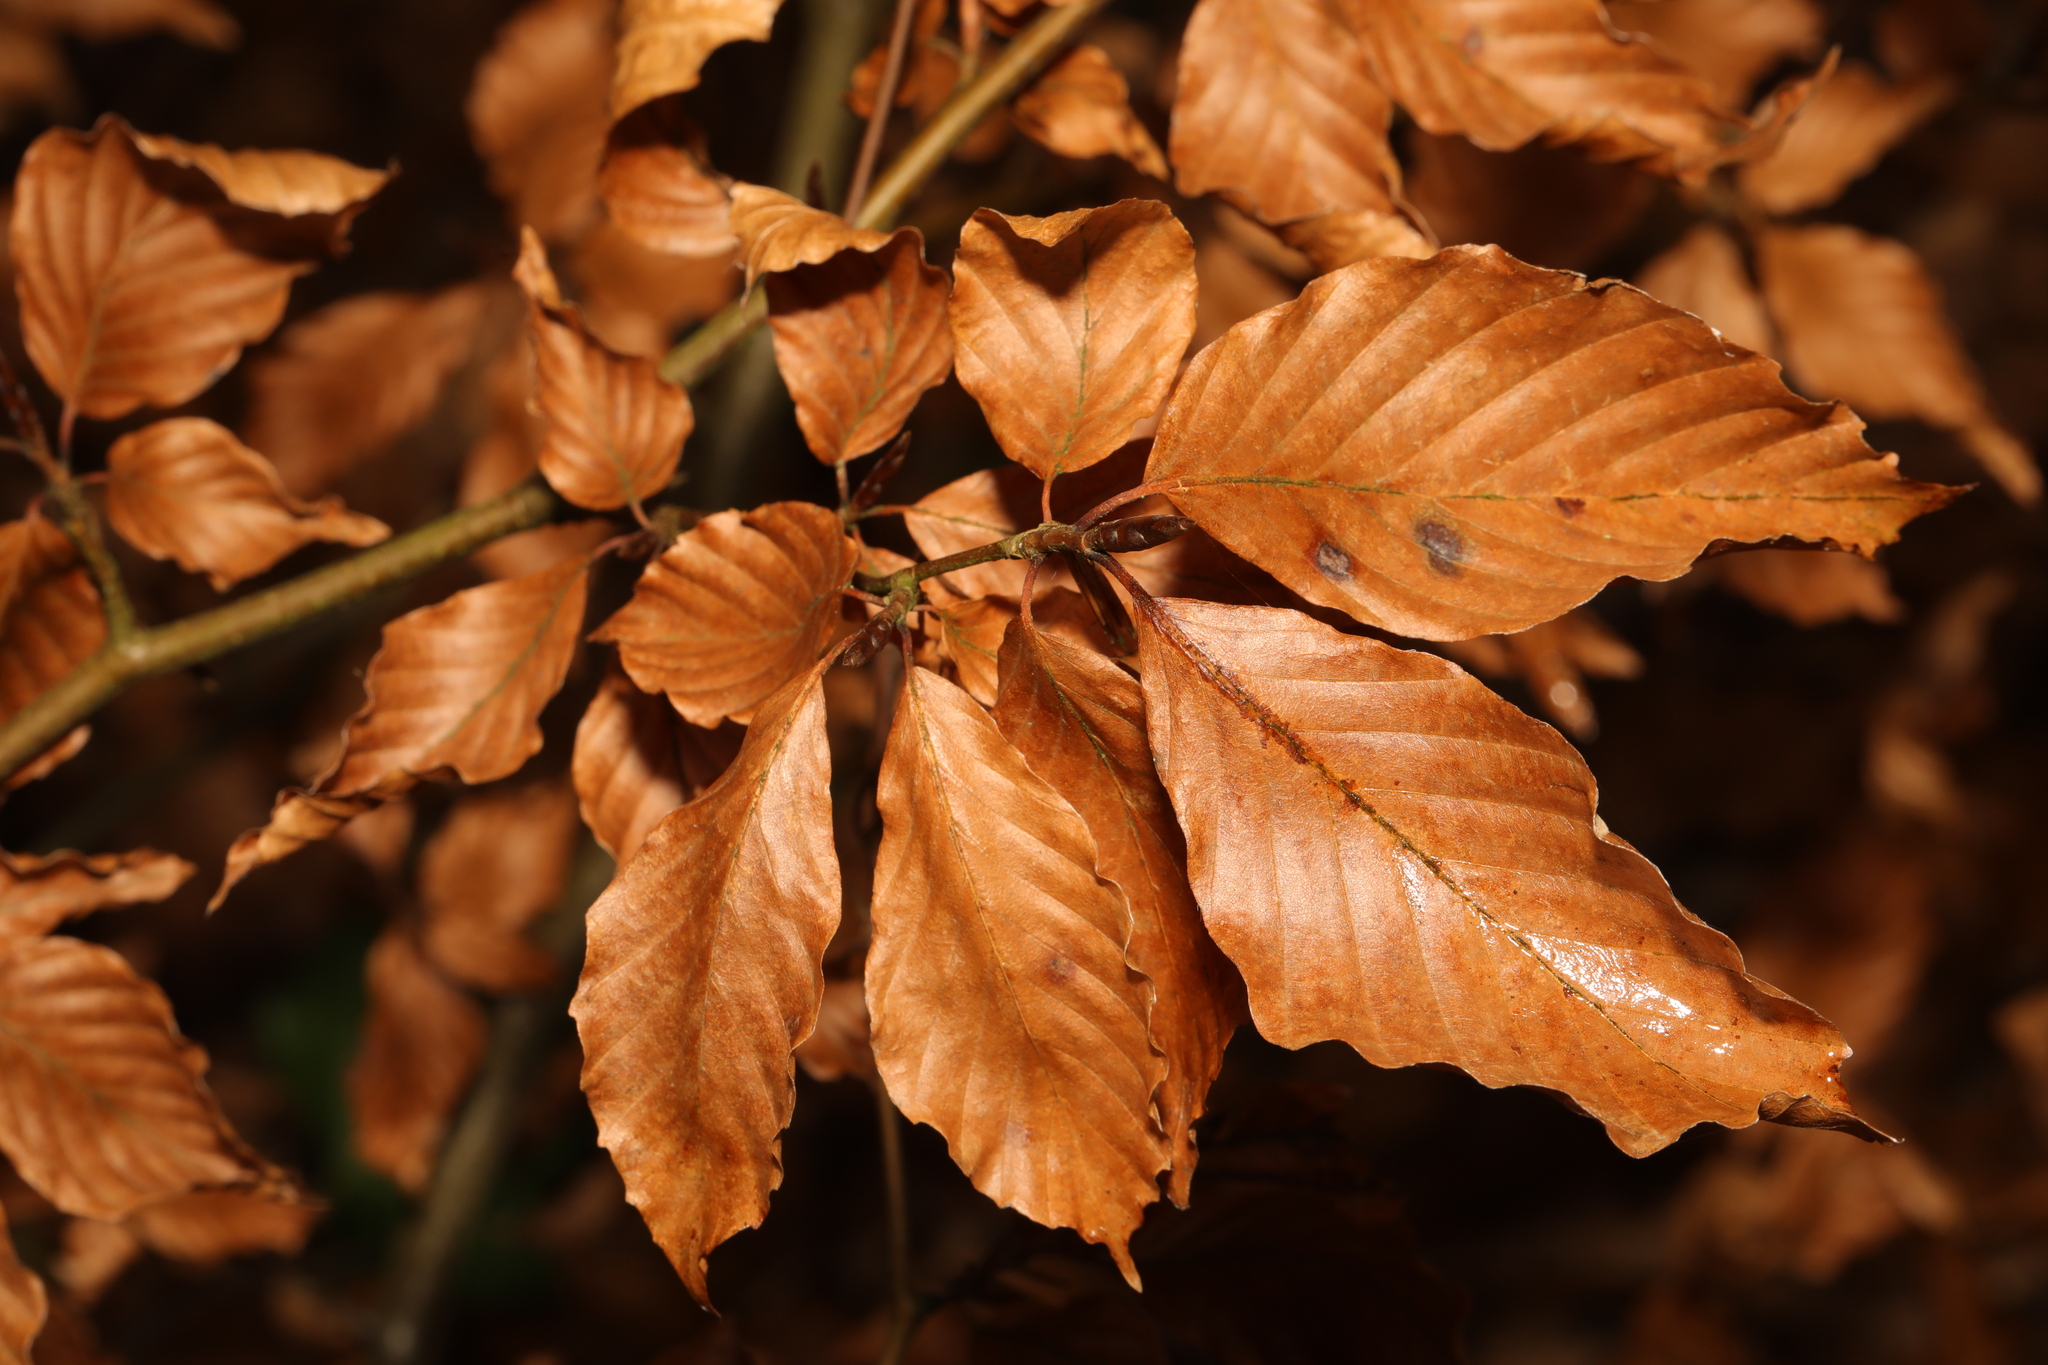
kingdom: Plantae
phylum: Tracheophyta
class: Magnoliopsida
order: Fagales
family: Fagaceae
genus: Fagus
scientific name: Fagus sylvatica
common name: Beech
